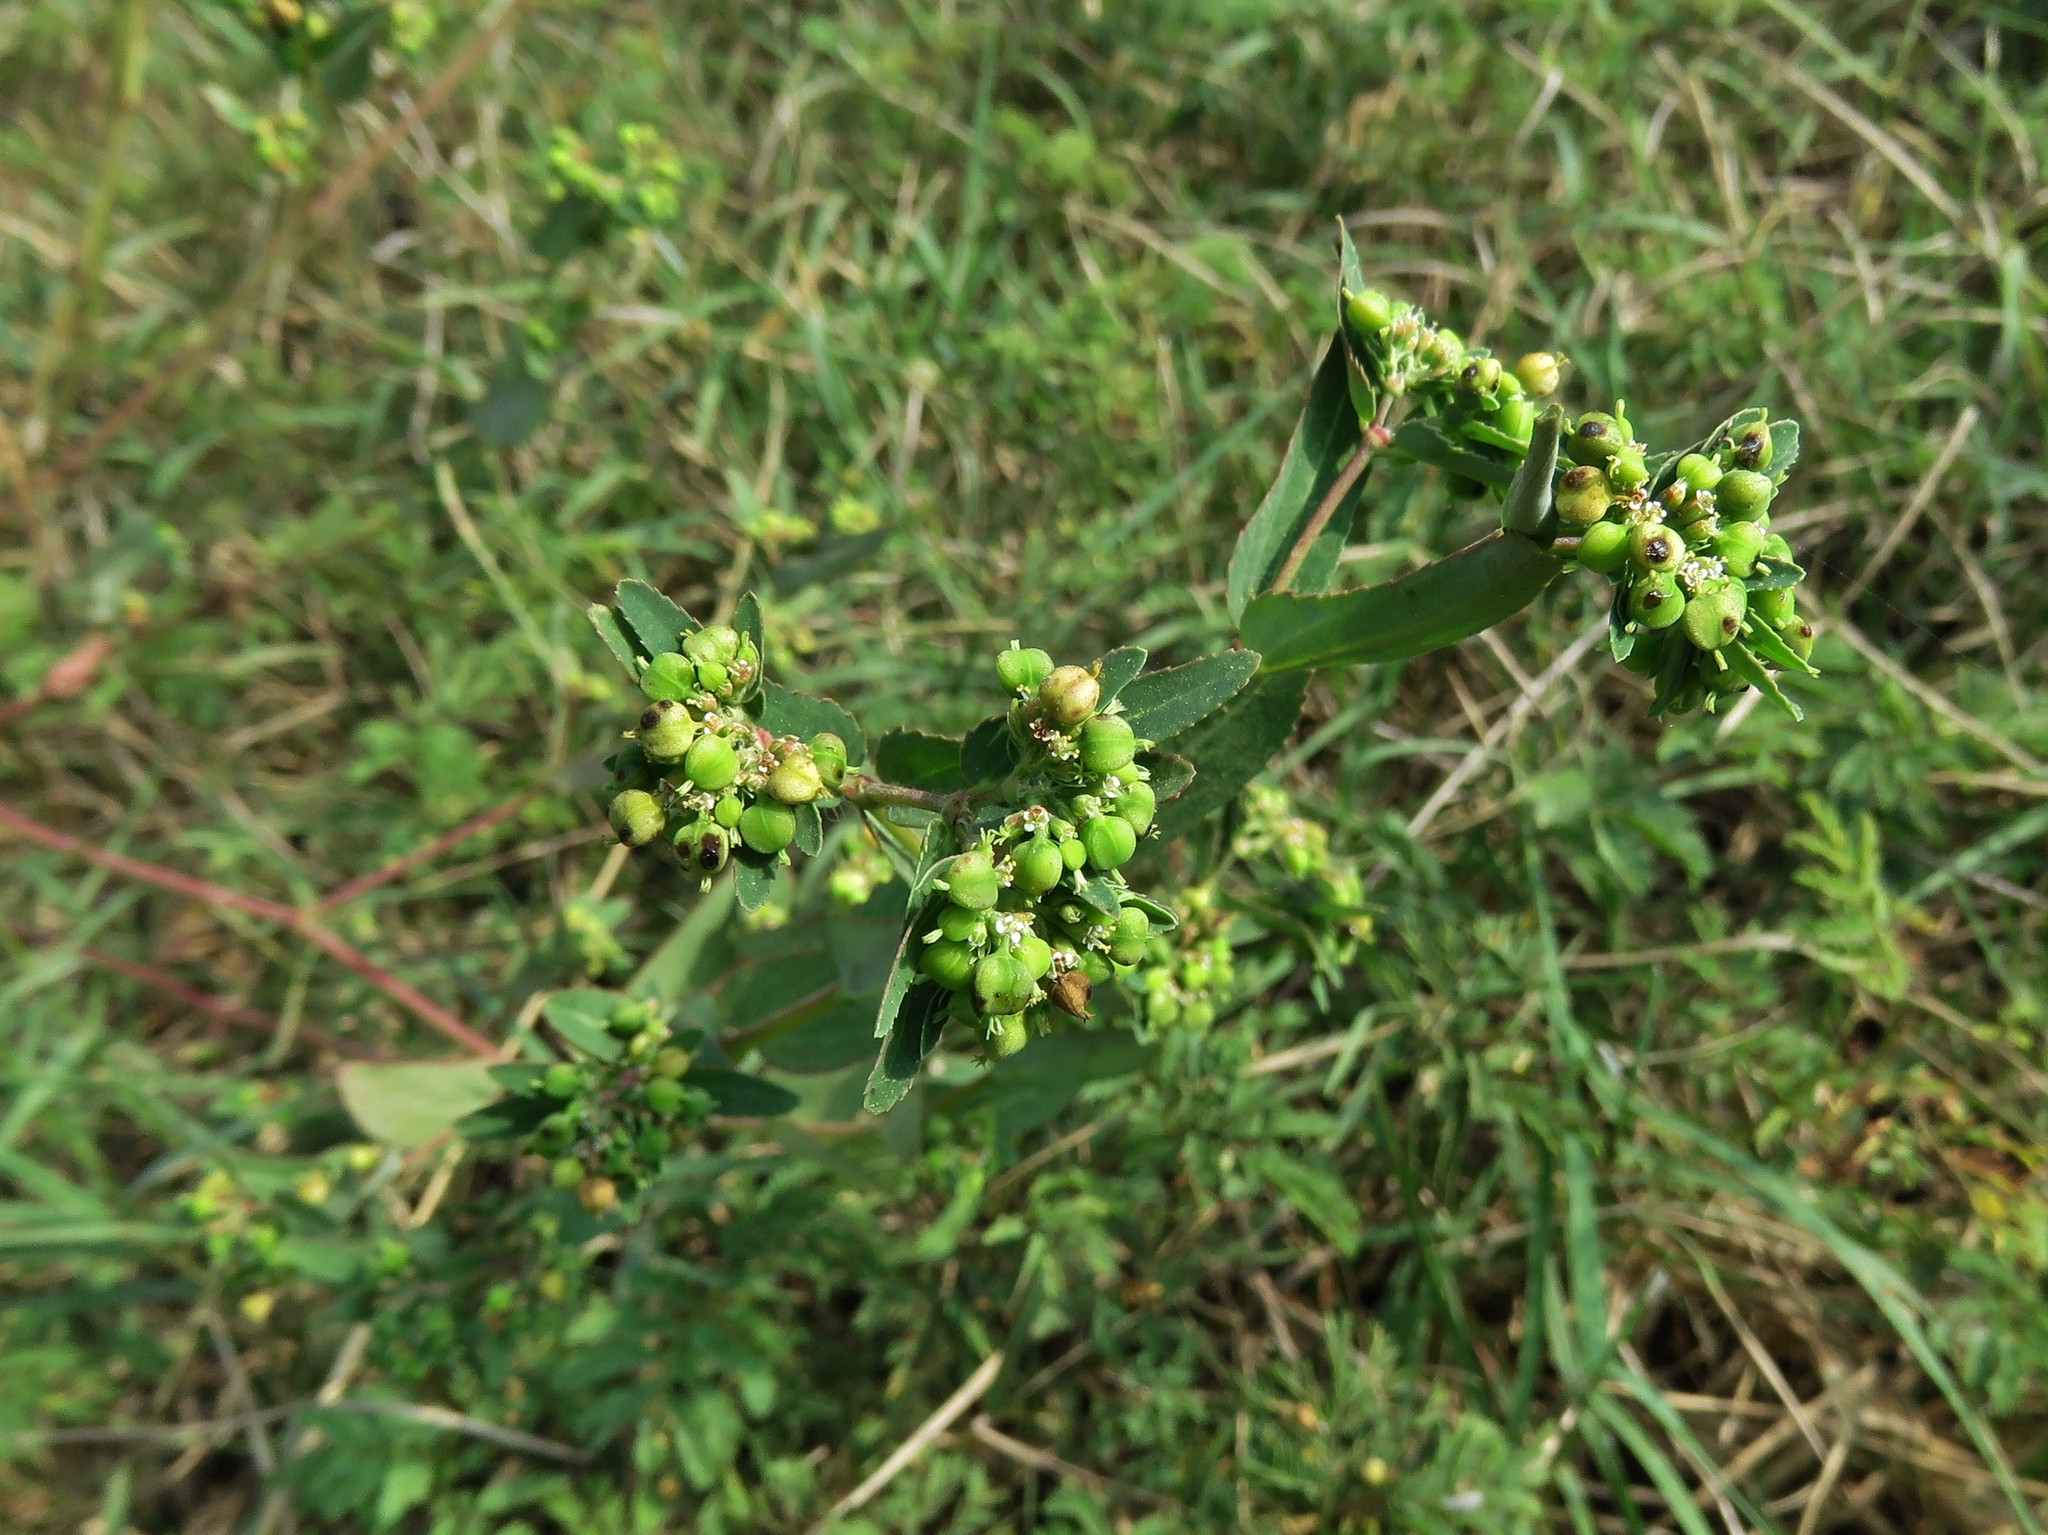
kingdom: Plantae
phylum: Tracheophyta
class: Magnoliopsida
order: Malpighiales
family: Euphorbiaceae
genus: Euphorbia
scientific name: Euphorbia nutans
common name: Eyebane
